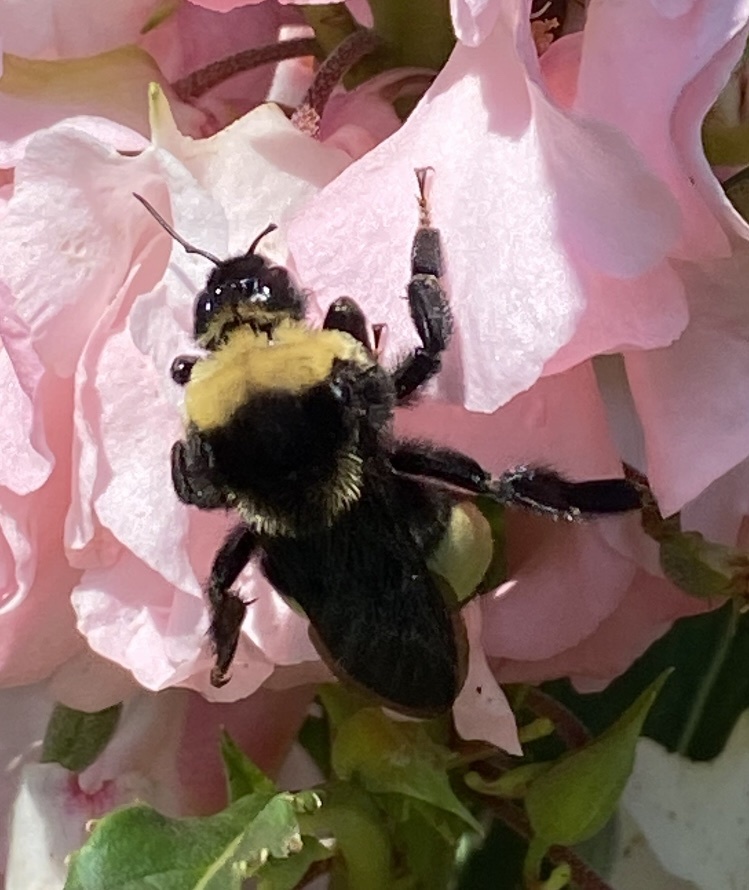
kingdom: Animalia
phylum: Arthropoda
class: Insecta
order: Hymenoptera
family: Apidae
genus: Bombus
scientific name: Bombus auricomus
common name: Black and gold bumble bee
